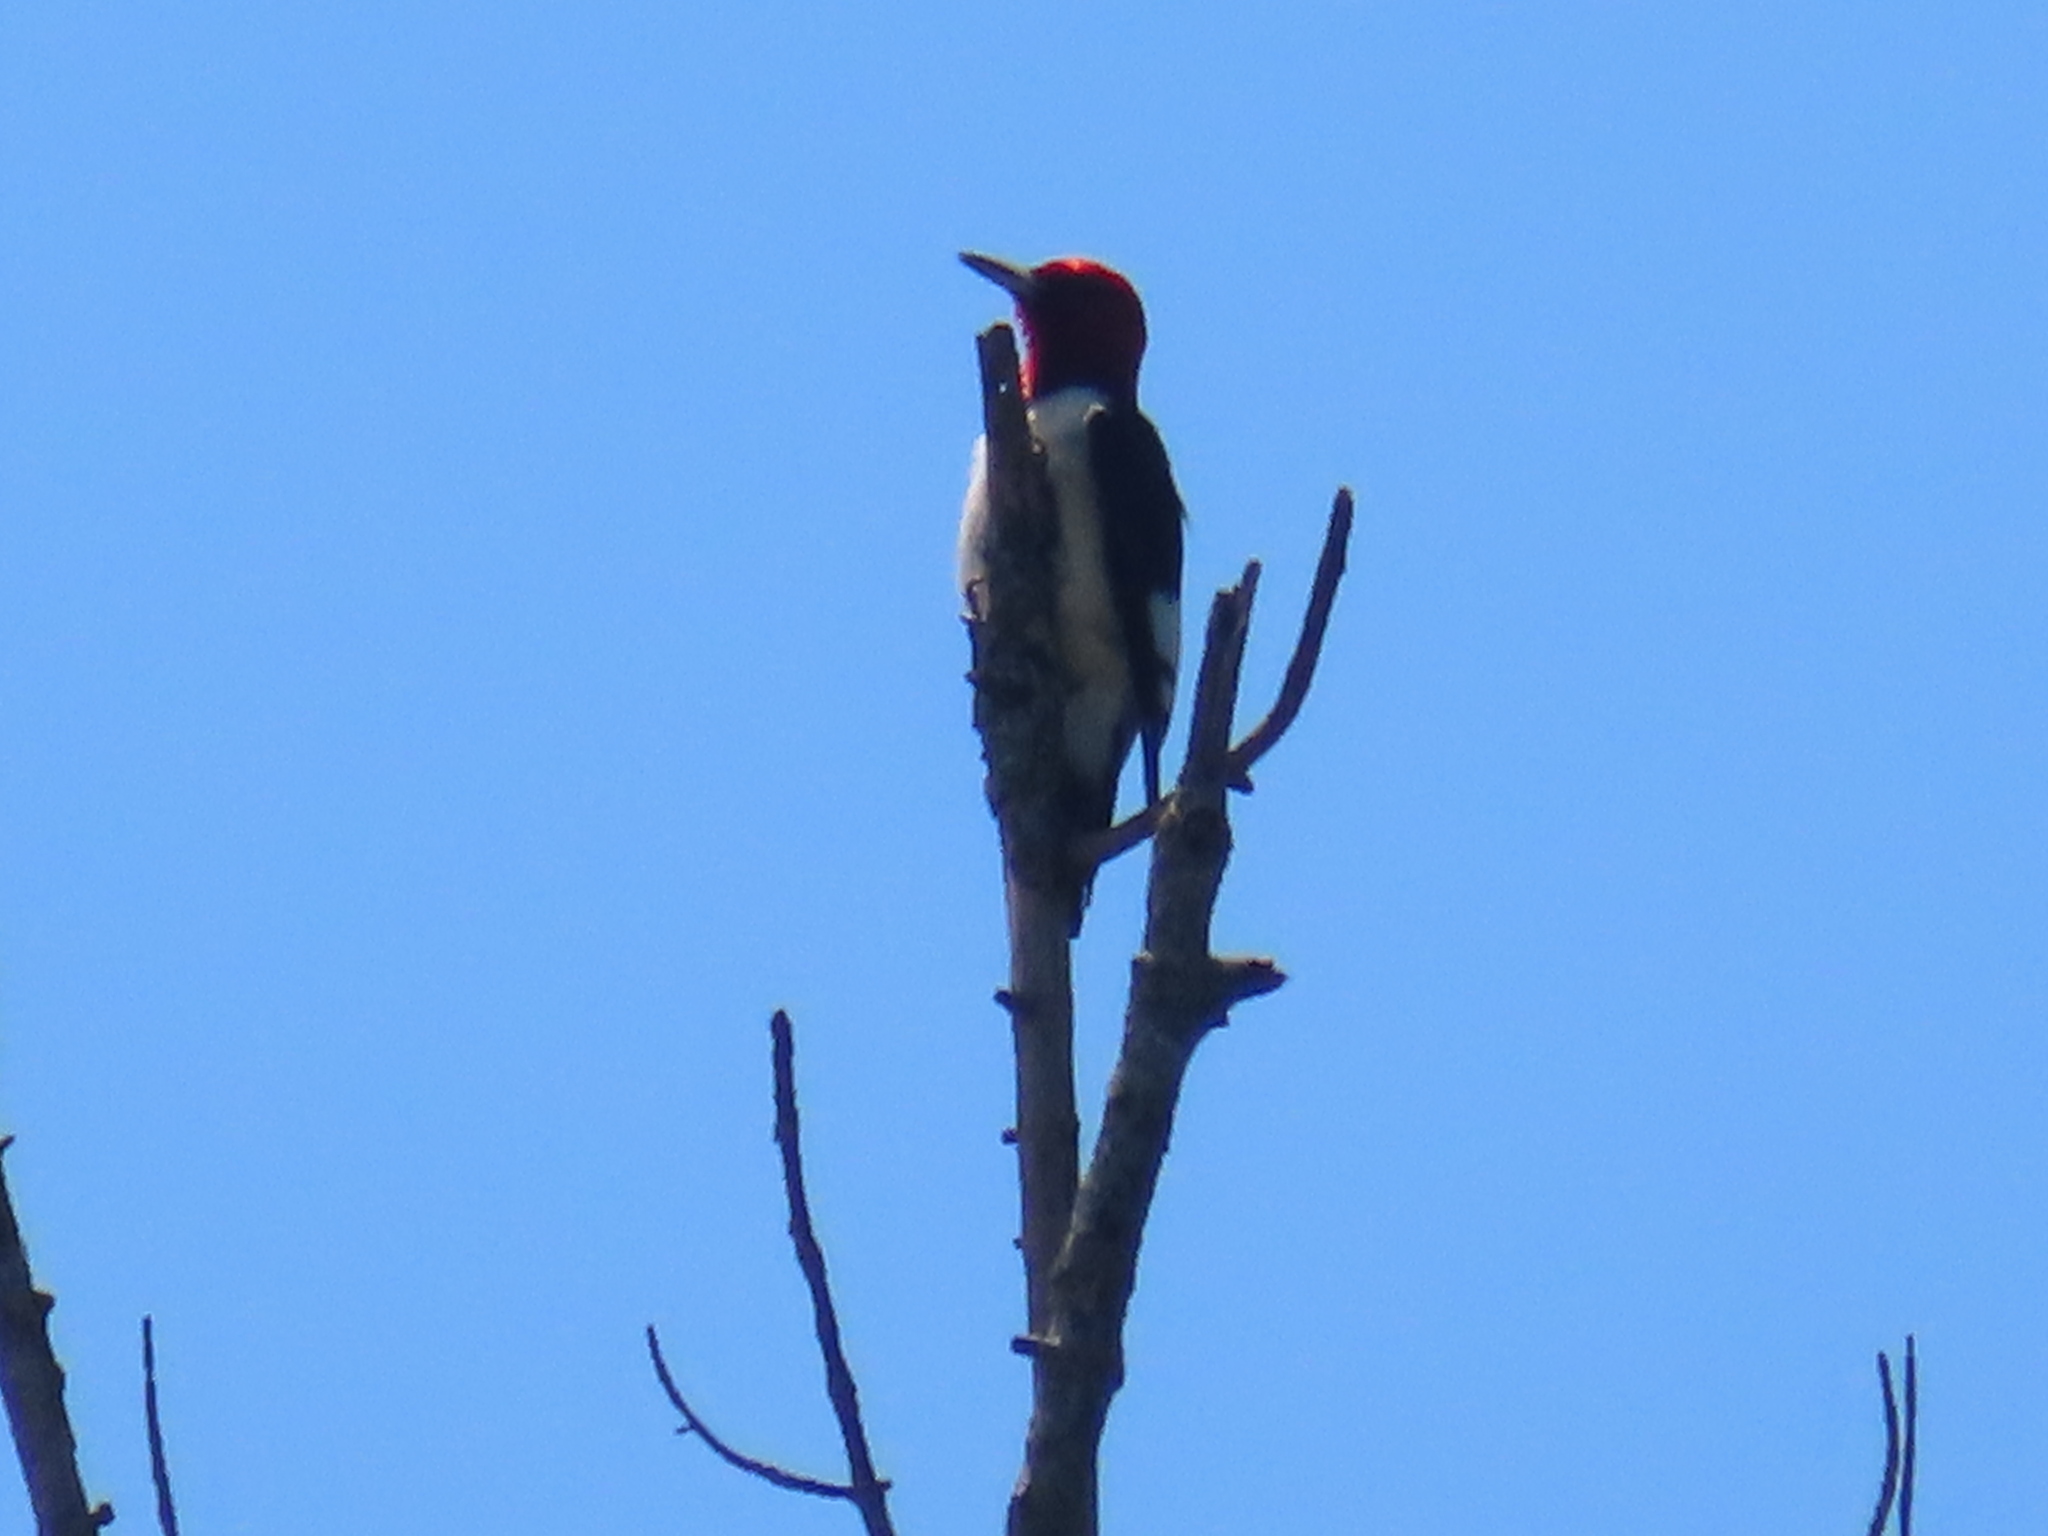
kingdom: Animalia
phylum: Chordata
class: Aves
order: Piciformes
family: Picidae
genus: Melanerpes
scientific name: Melanerpes erythrocephalus
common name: Red-headed woodpecker
